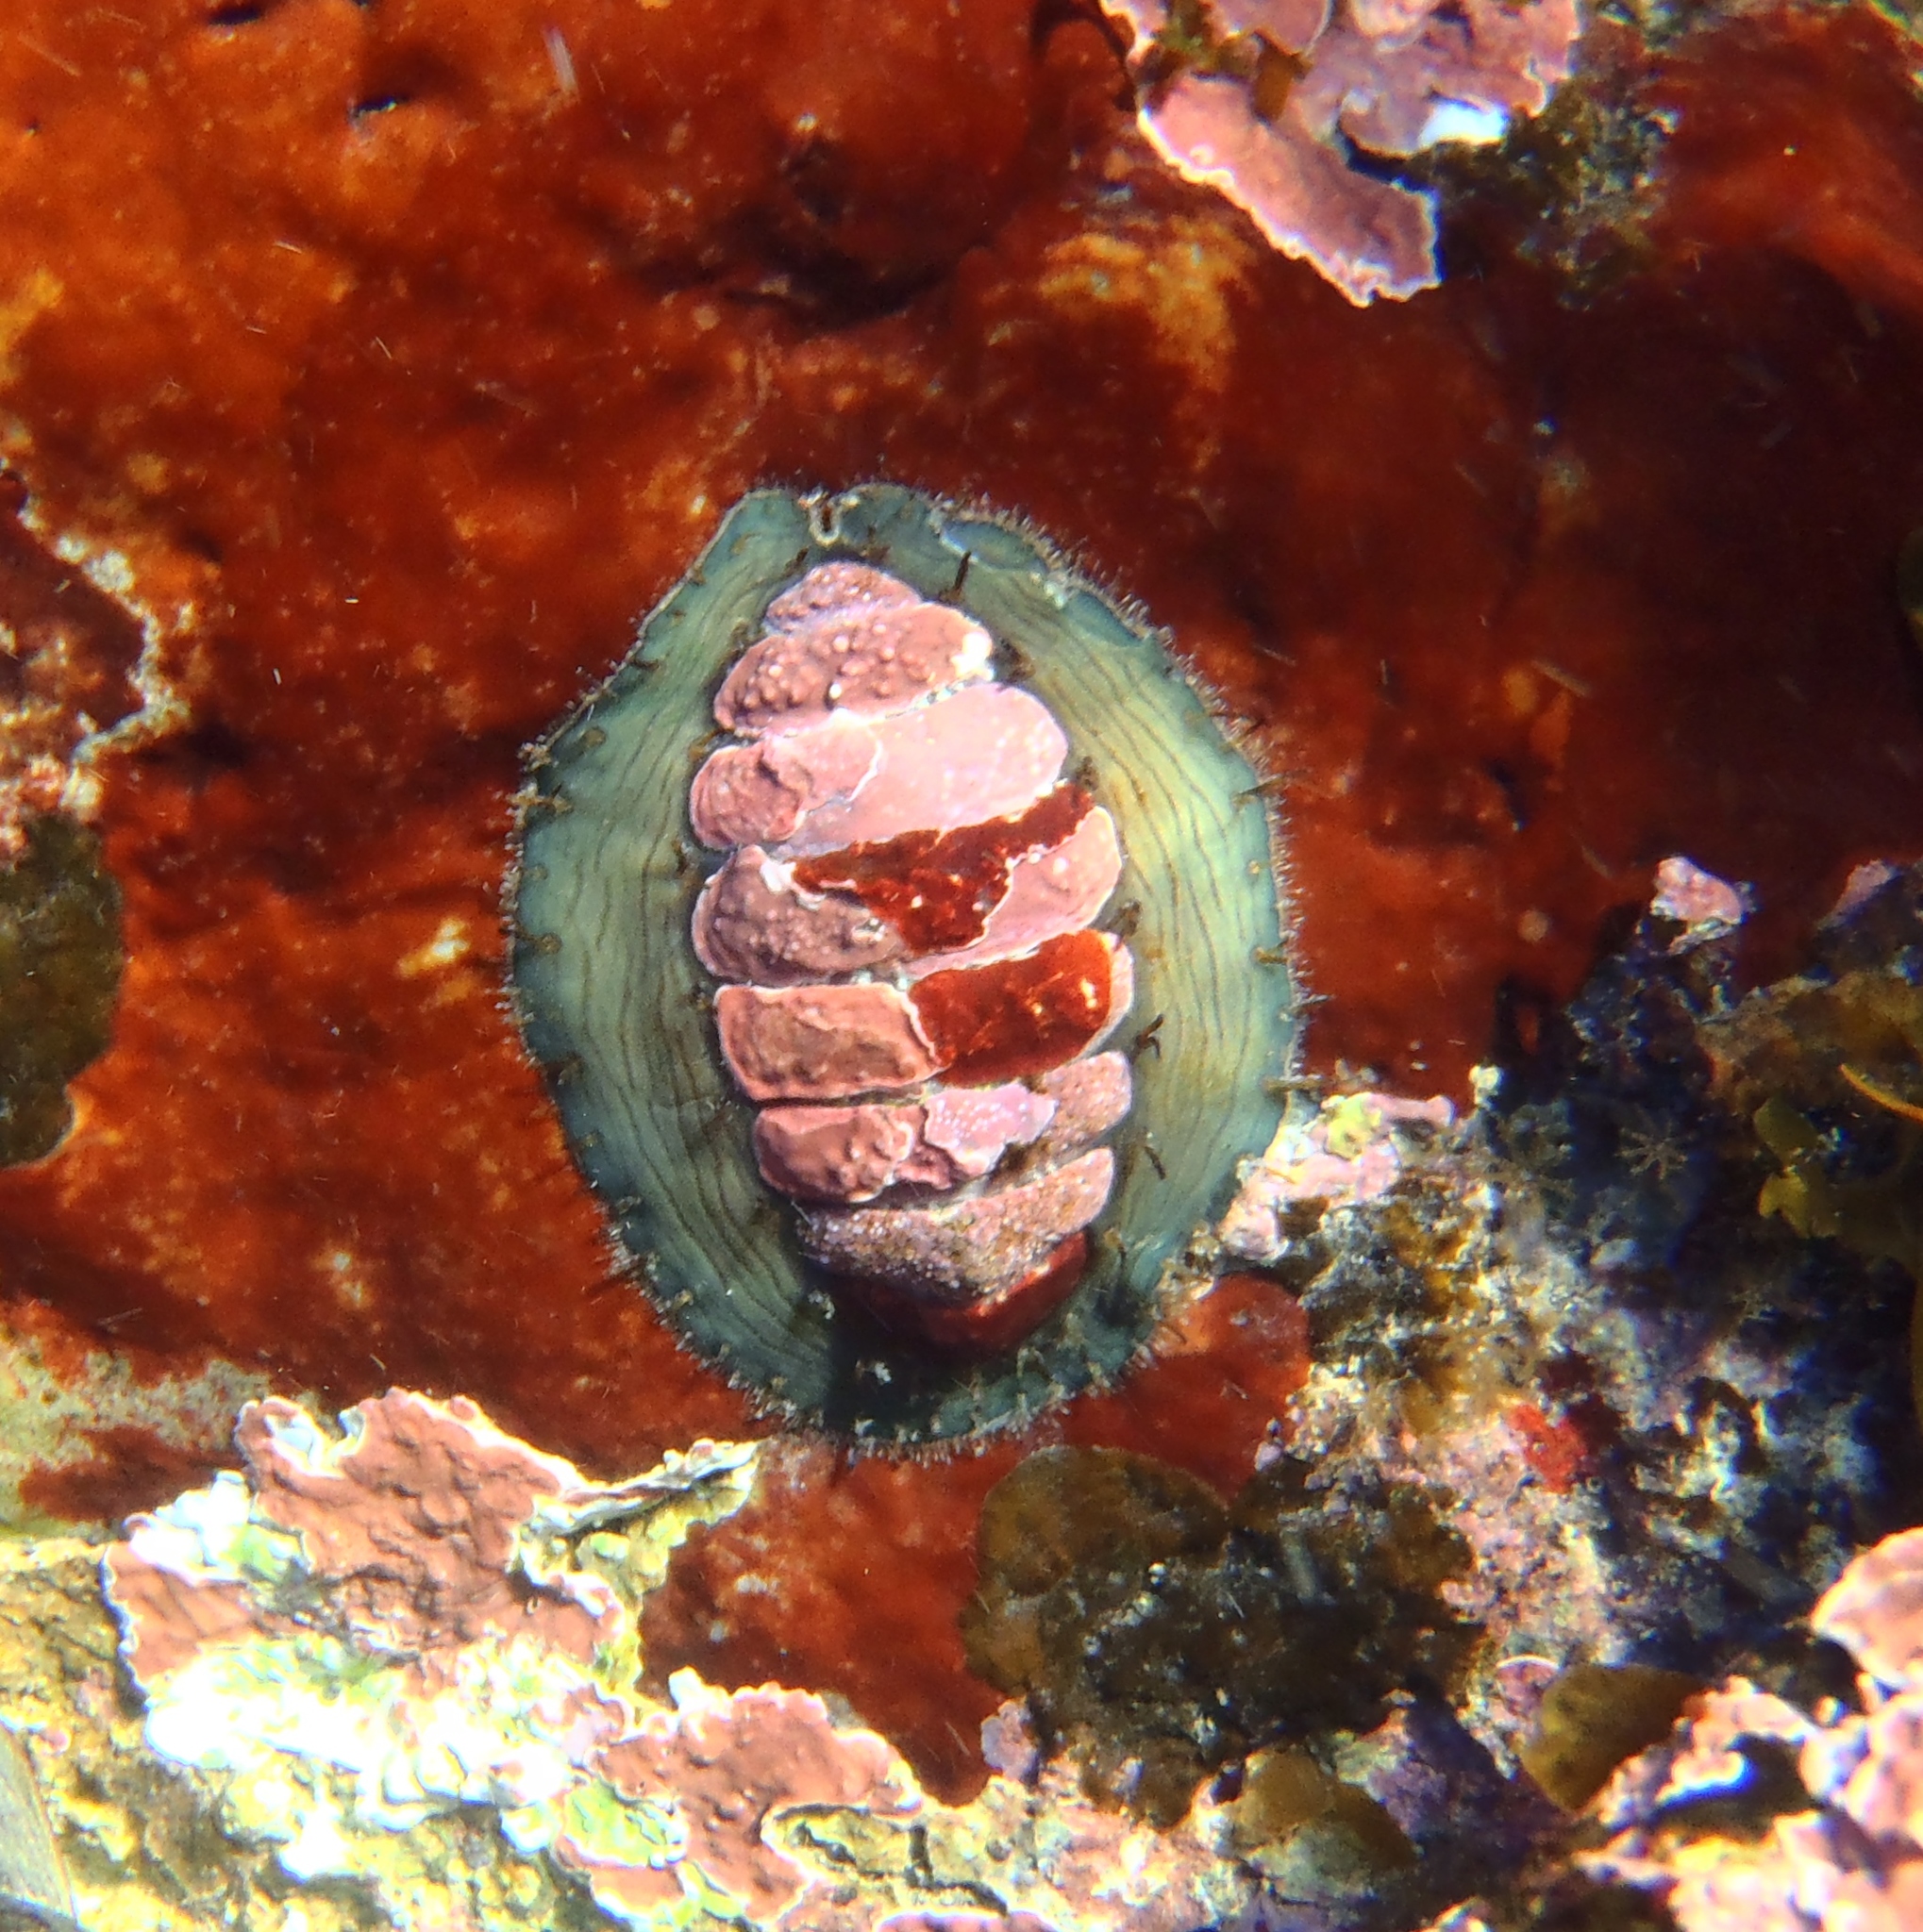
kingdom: Animalia
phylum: Mollusca
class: Polyplacophora
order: Chitonida
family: Mopaliidae
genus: Plaxiphora
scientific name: Plaxiphora biramosa
